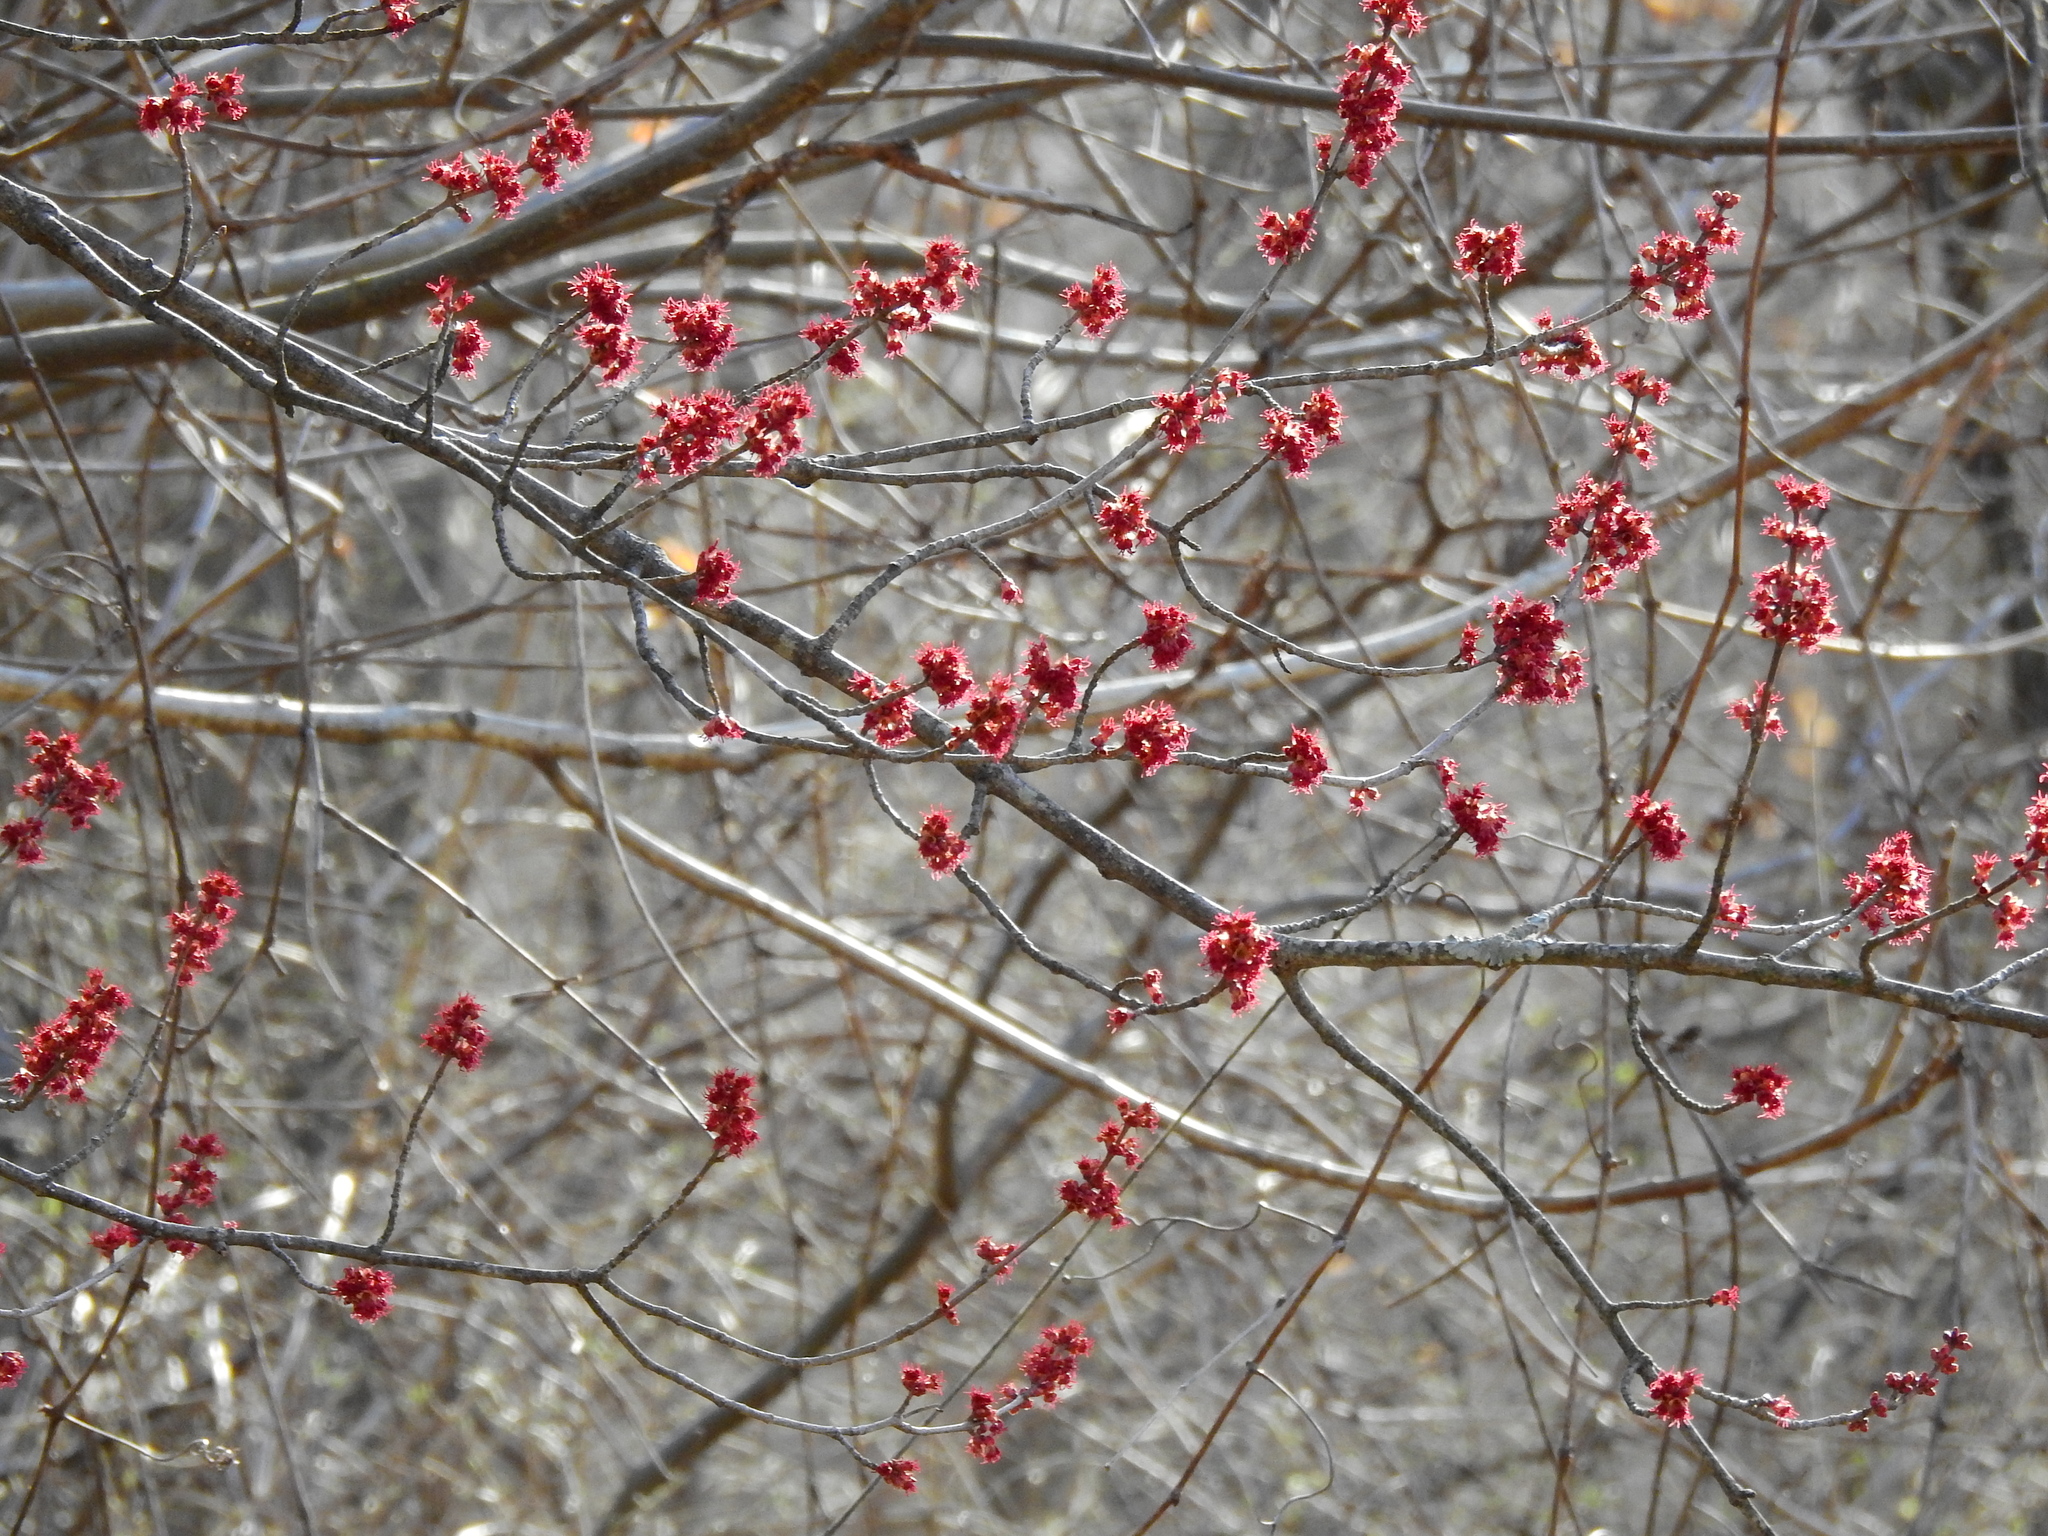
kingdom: Plantae
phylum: Tracheophyta
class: Magnoliopsida
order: Sapindales
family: Sapindaceae
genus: Acer
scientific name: Acer rubrum
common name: Red maple
